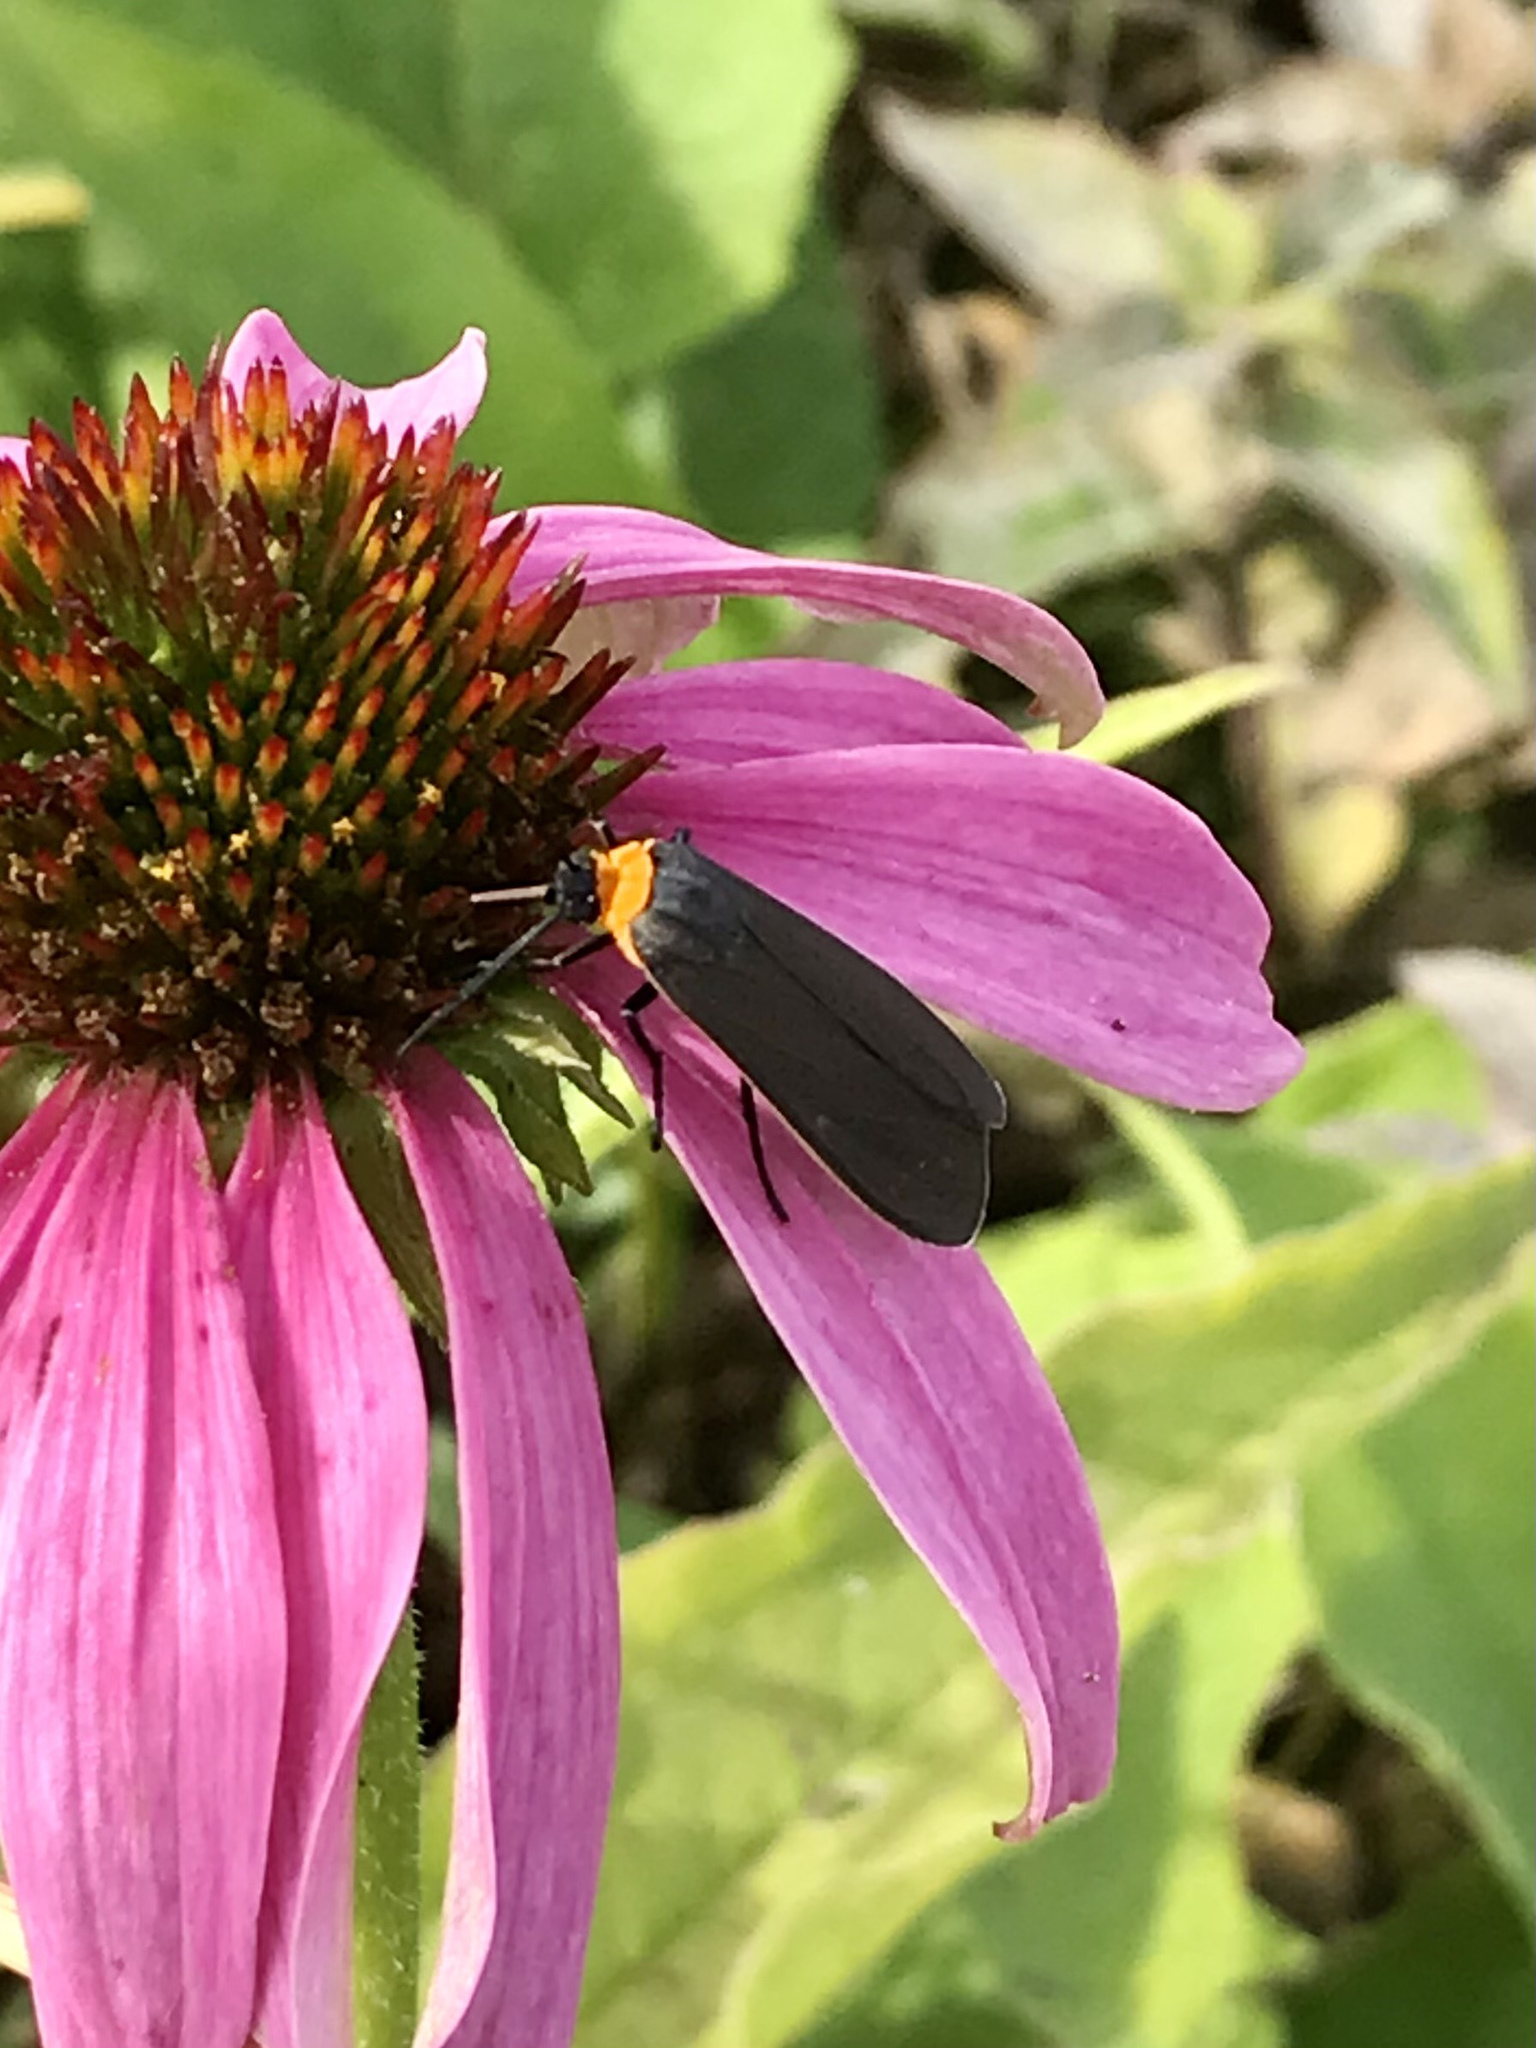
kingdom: Animalia
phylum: Arthropoda
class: Insecta
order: Lepidoptera
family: Erebidae
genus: Cisseps
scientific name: Cisseps fulvicollis
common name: Yellow-collared scape moth
